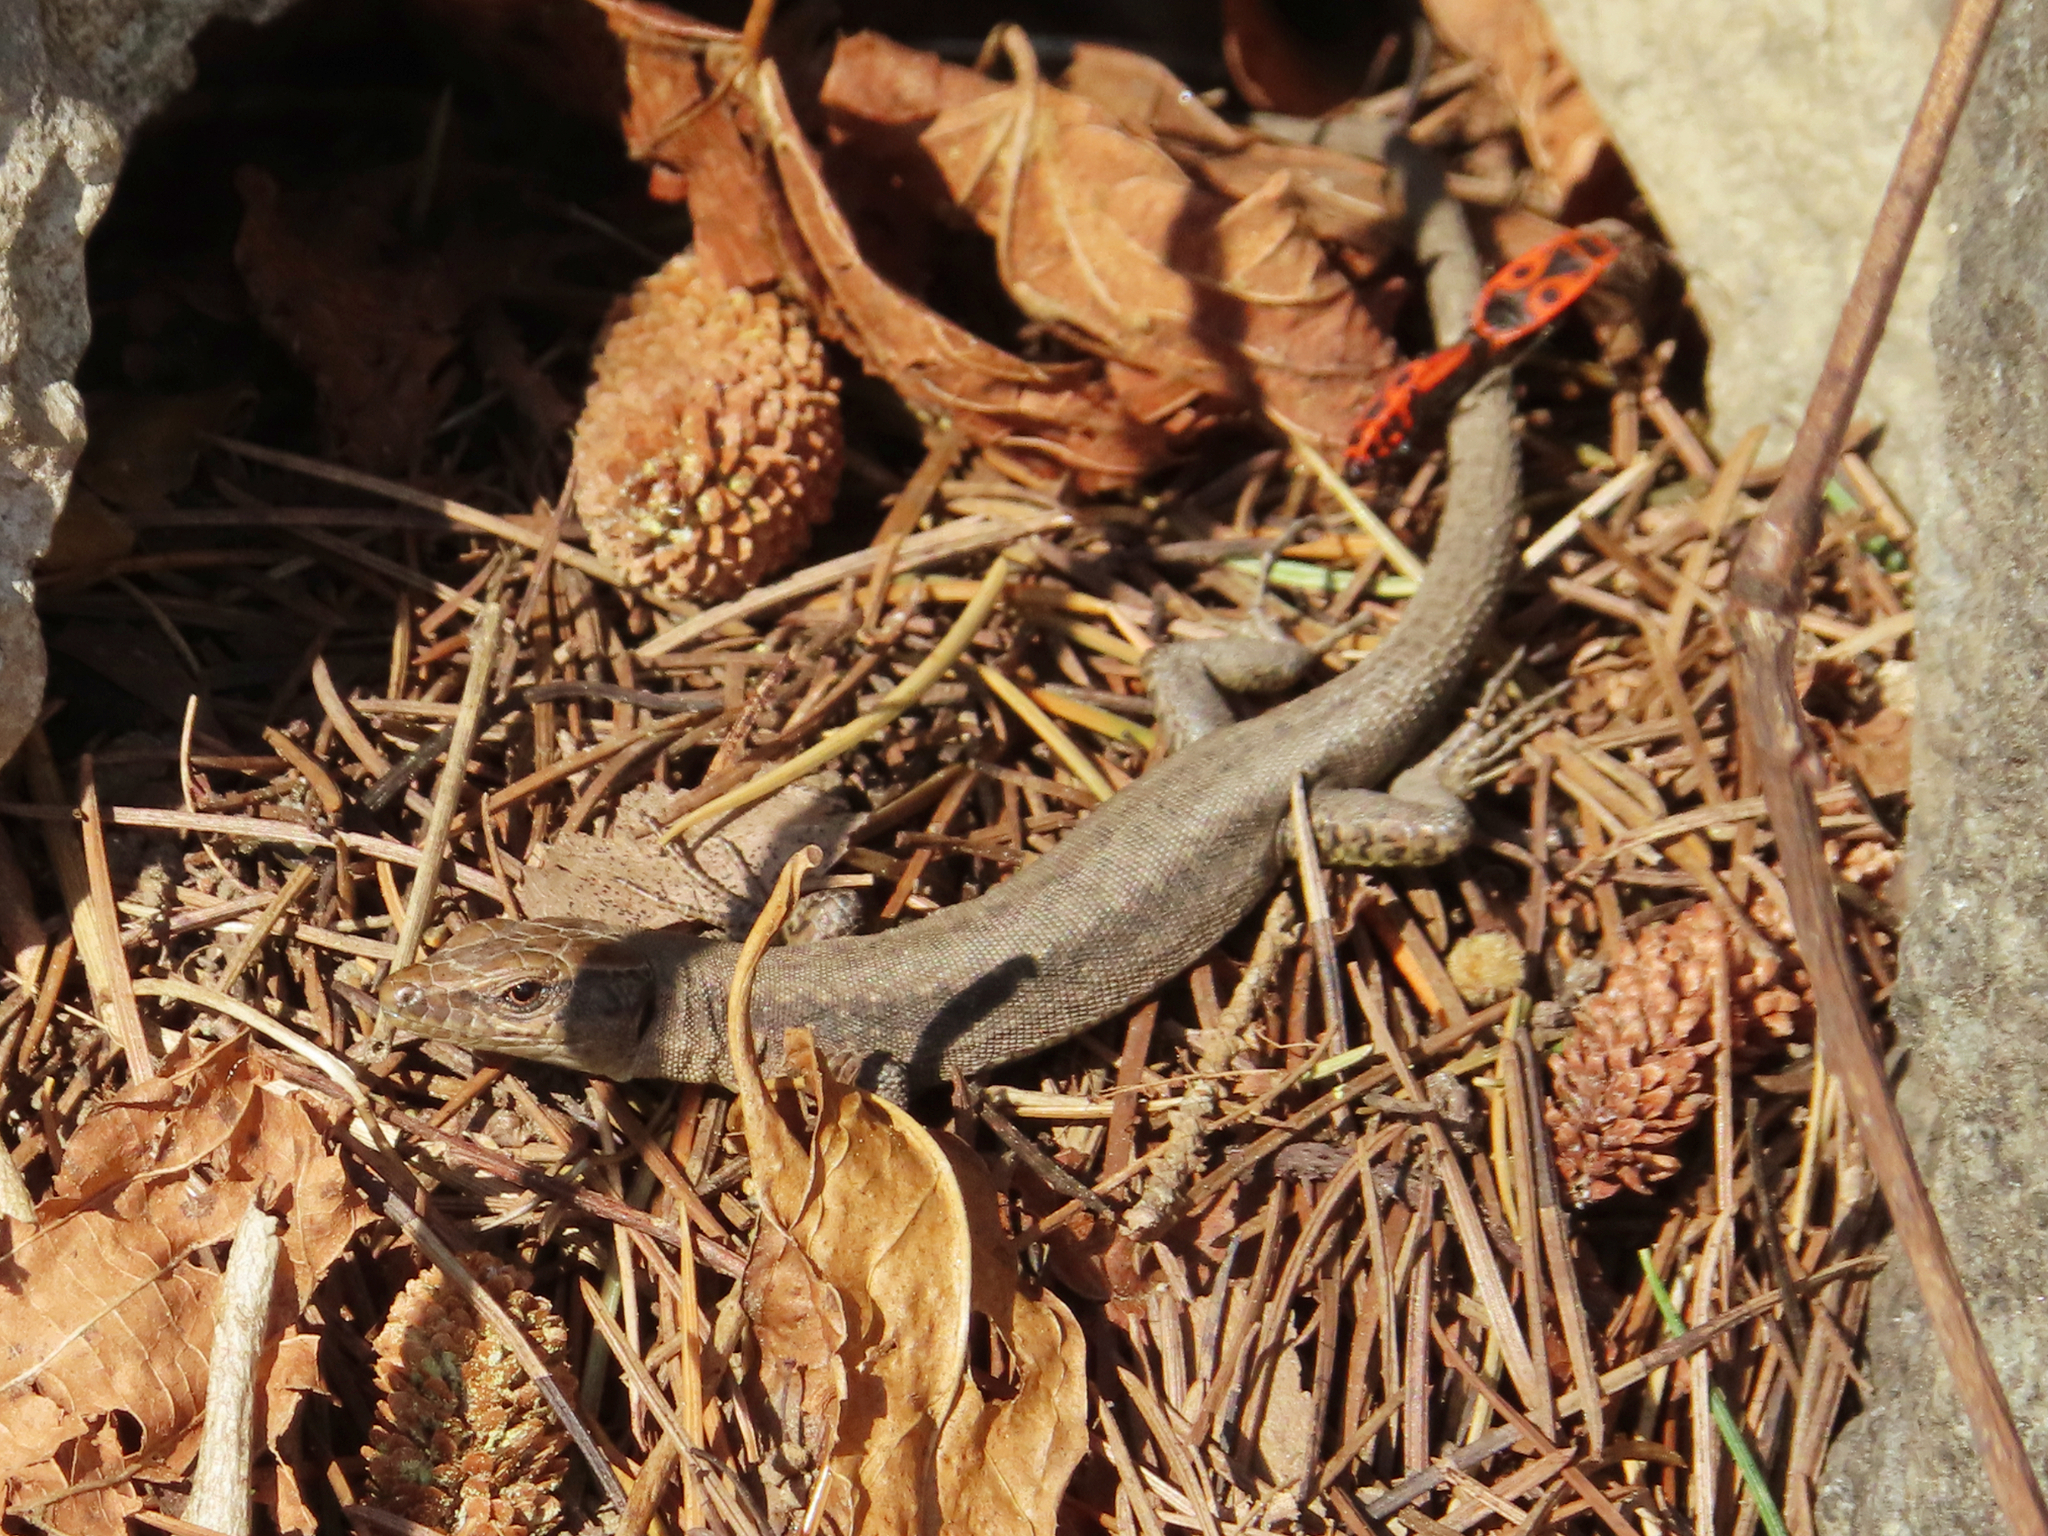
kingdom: Animalia
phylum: Chordata
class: Squamata
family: Lacertidae
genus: Darevskia
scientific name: Darevskia mixta
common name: Ajarian lizard
